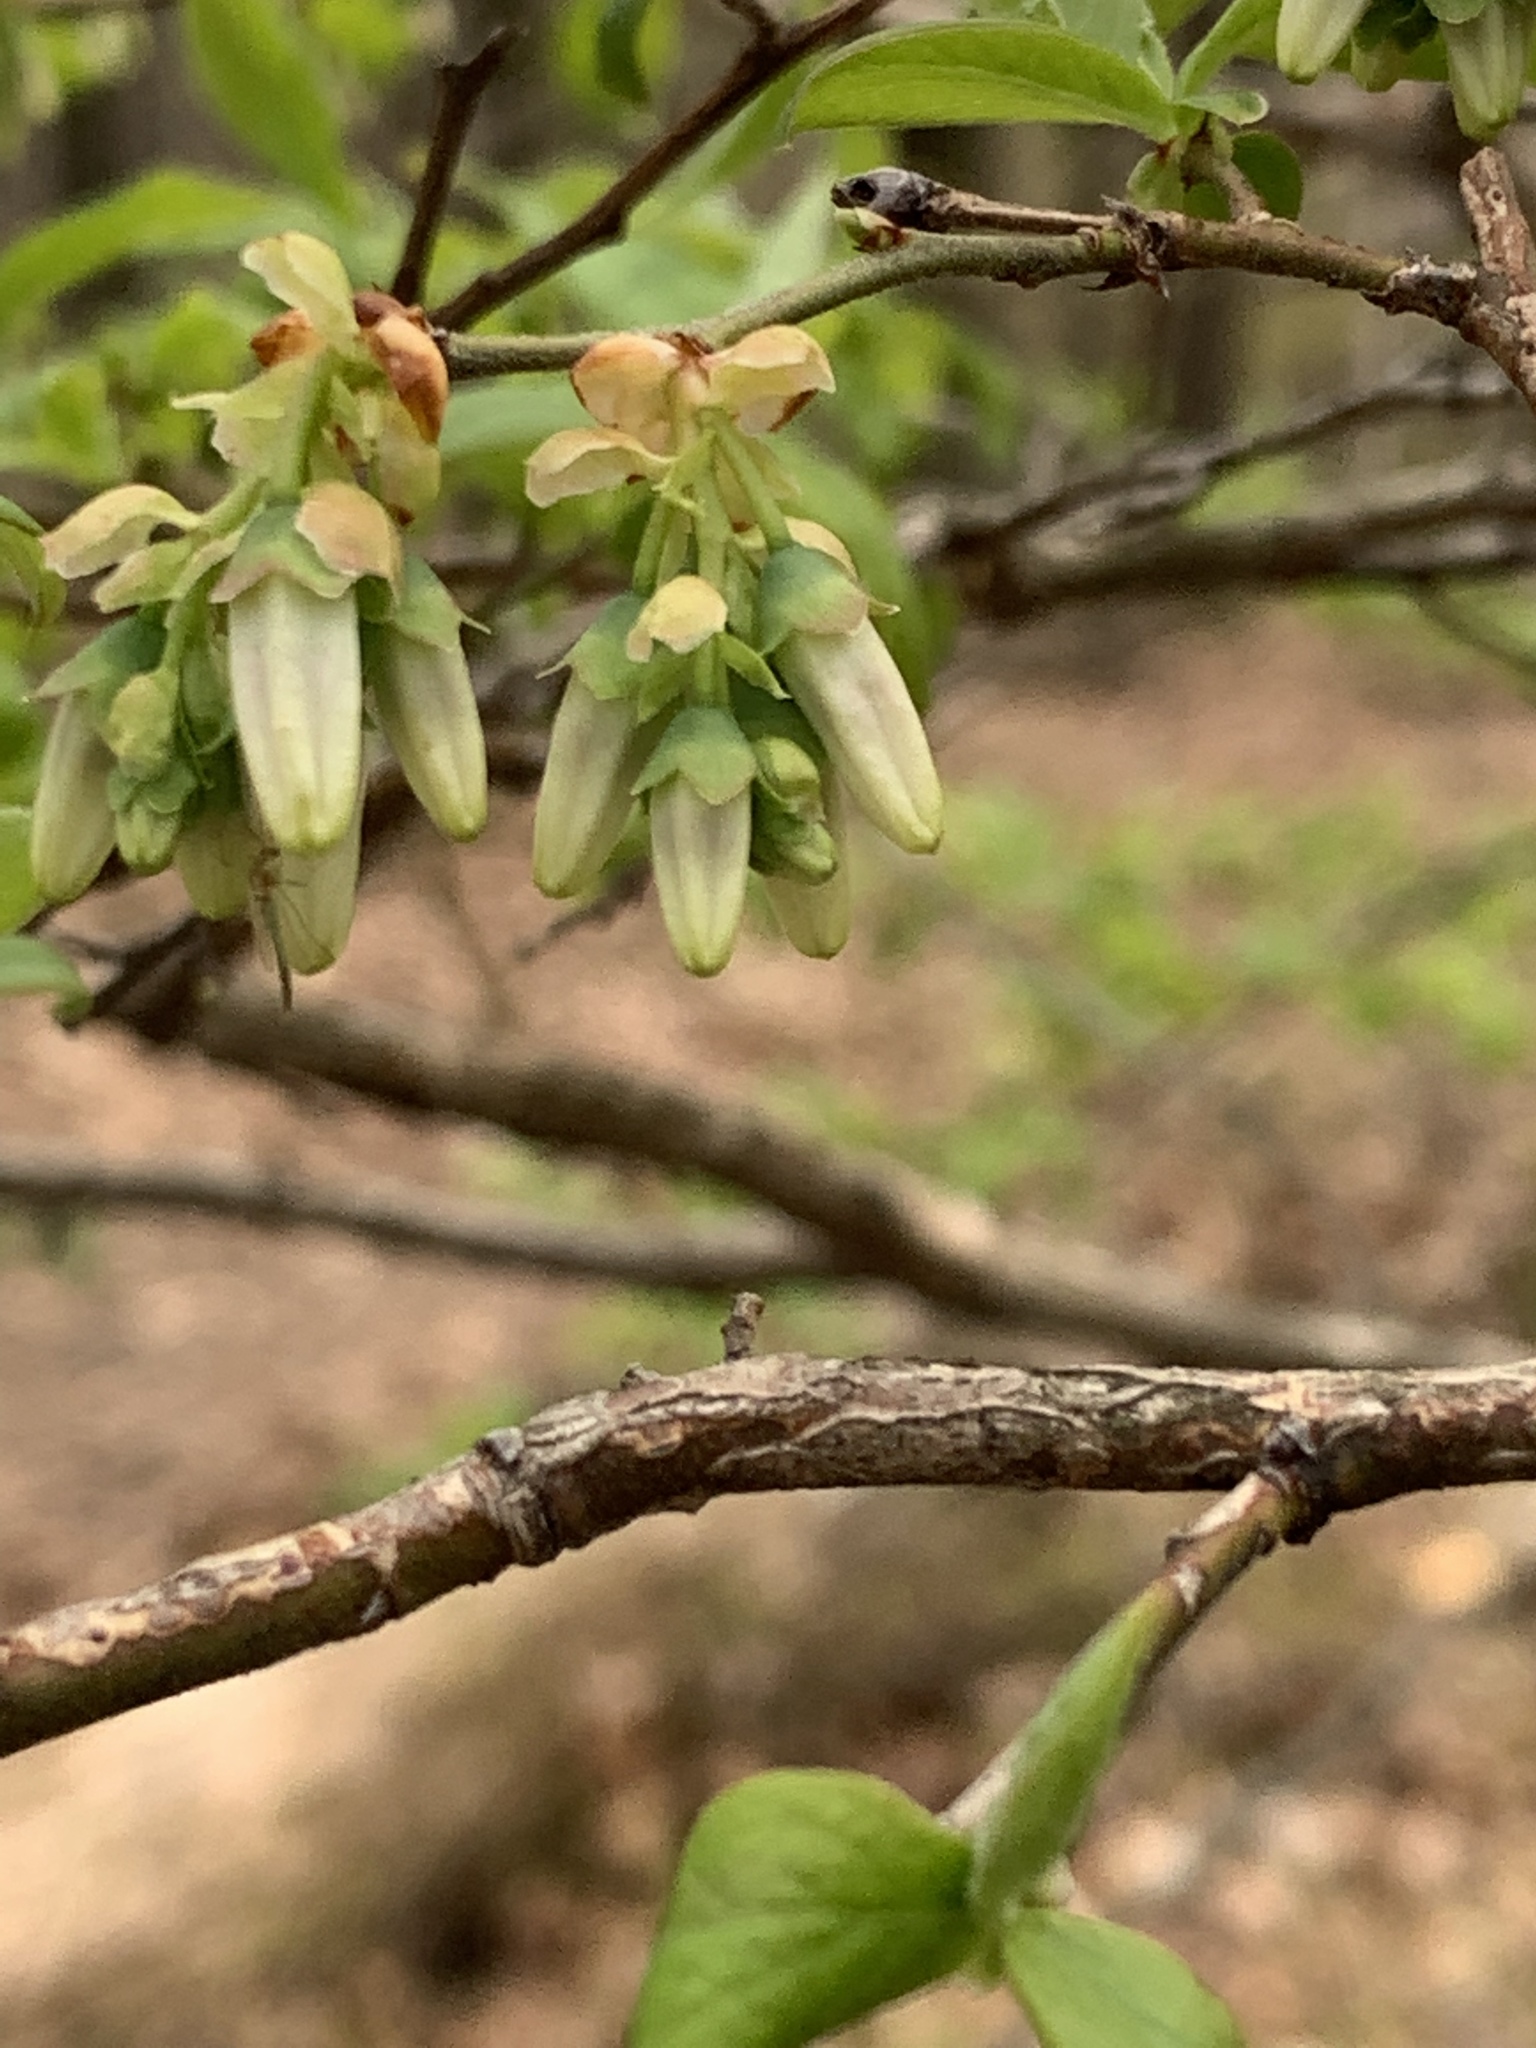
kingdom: Plantae
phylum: Tracheophyta
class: Magnoliopsida
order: Ericales
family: Ericaceae
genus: Vaccinium
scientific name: Vaccinium corymbosum
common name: Blueberry
